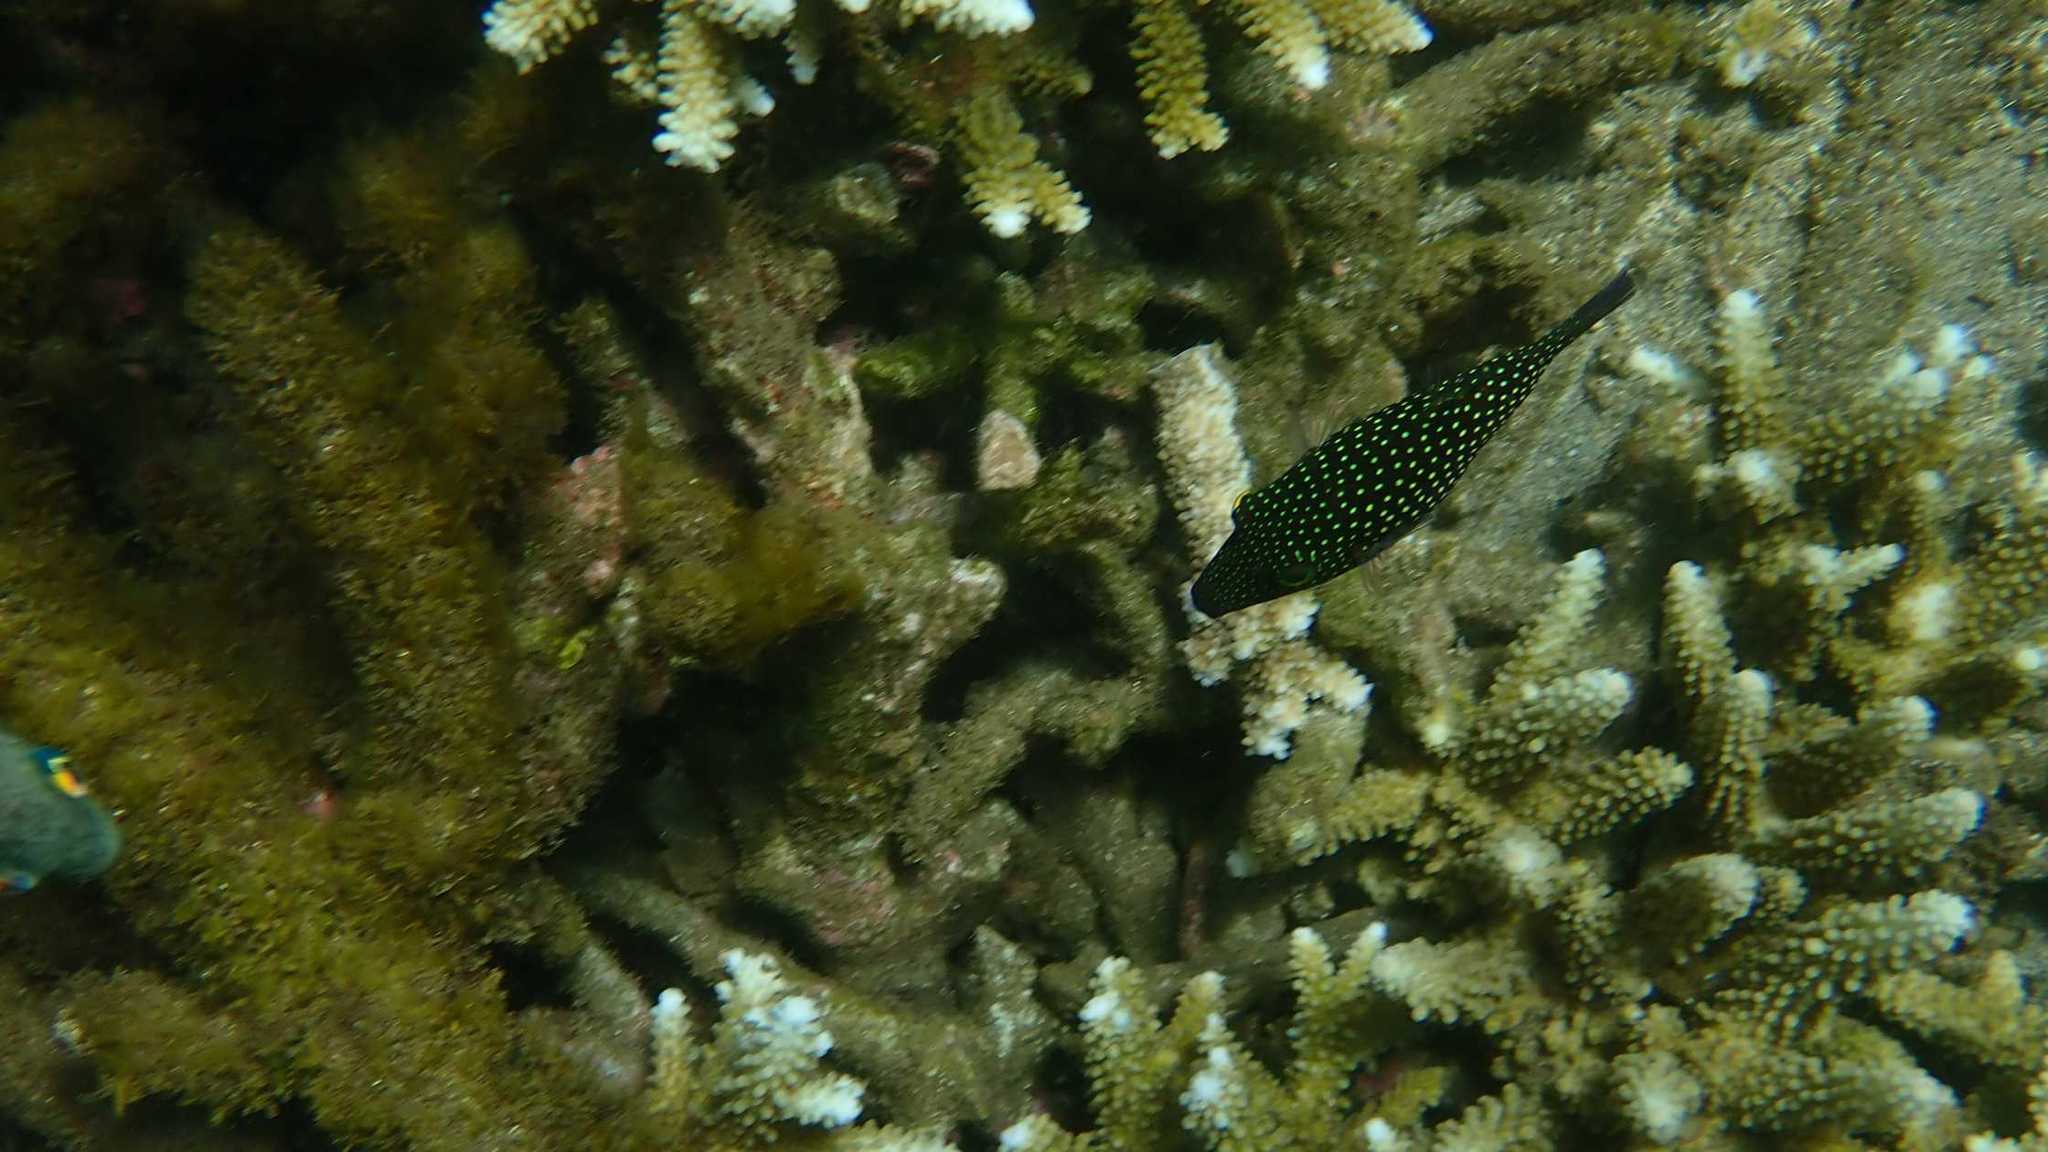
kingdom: Animalia
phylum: Chordata
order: Tetraodontiformes
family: Tetraodontidae
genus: Canthigaster
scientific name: Canthigaster janthinoptera
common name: Honeycomb toby
